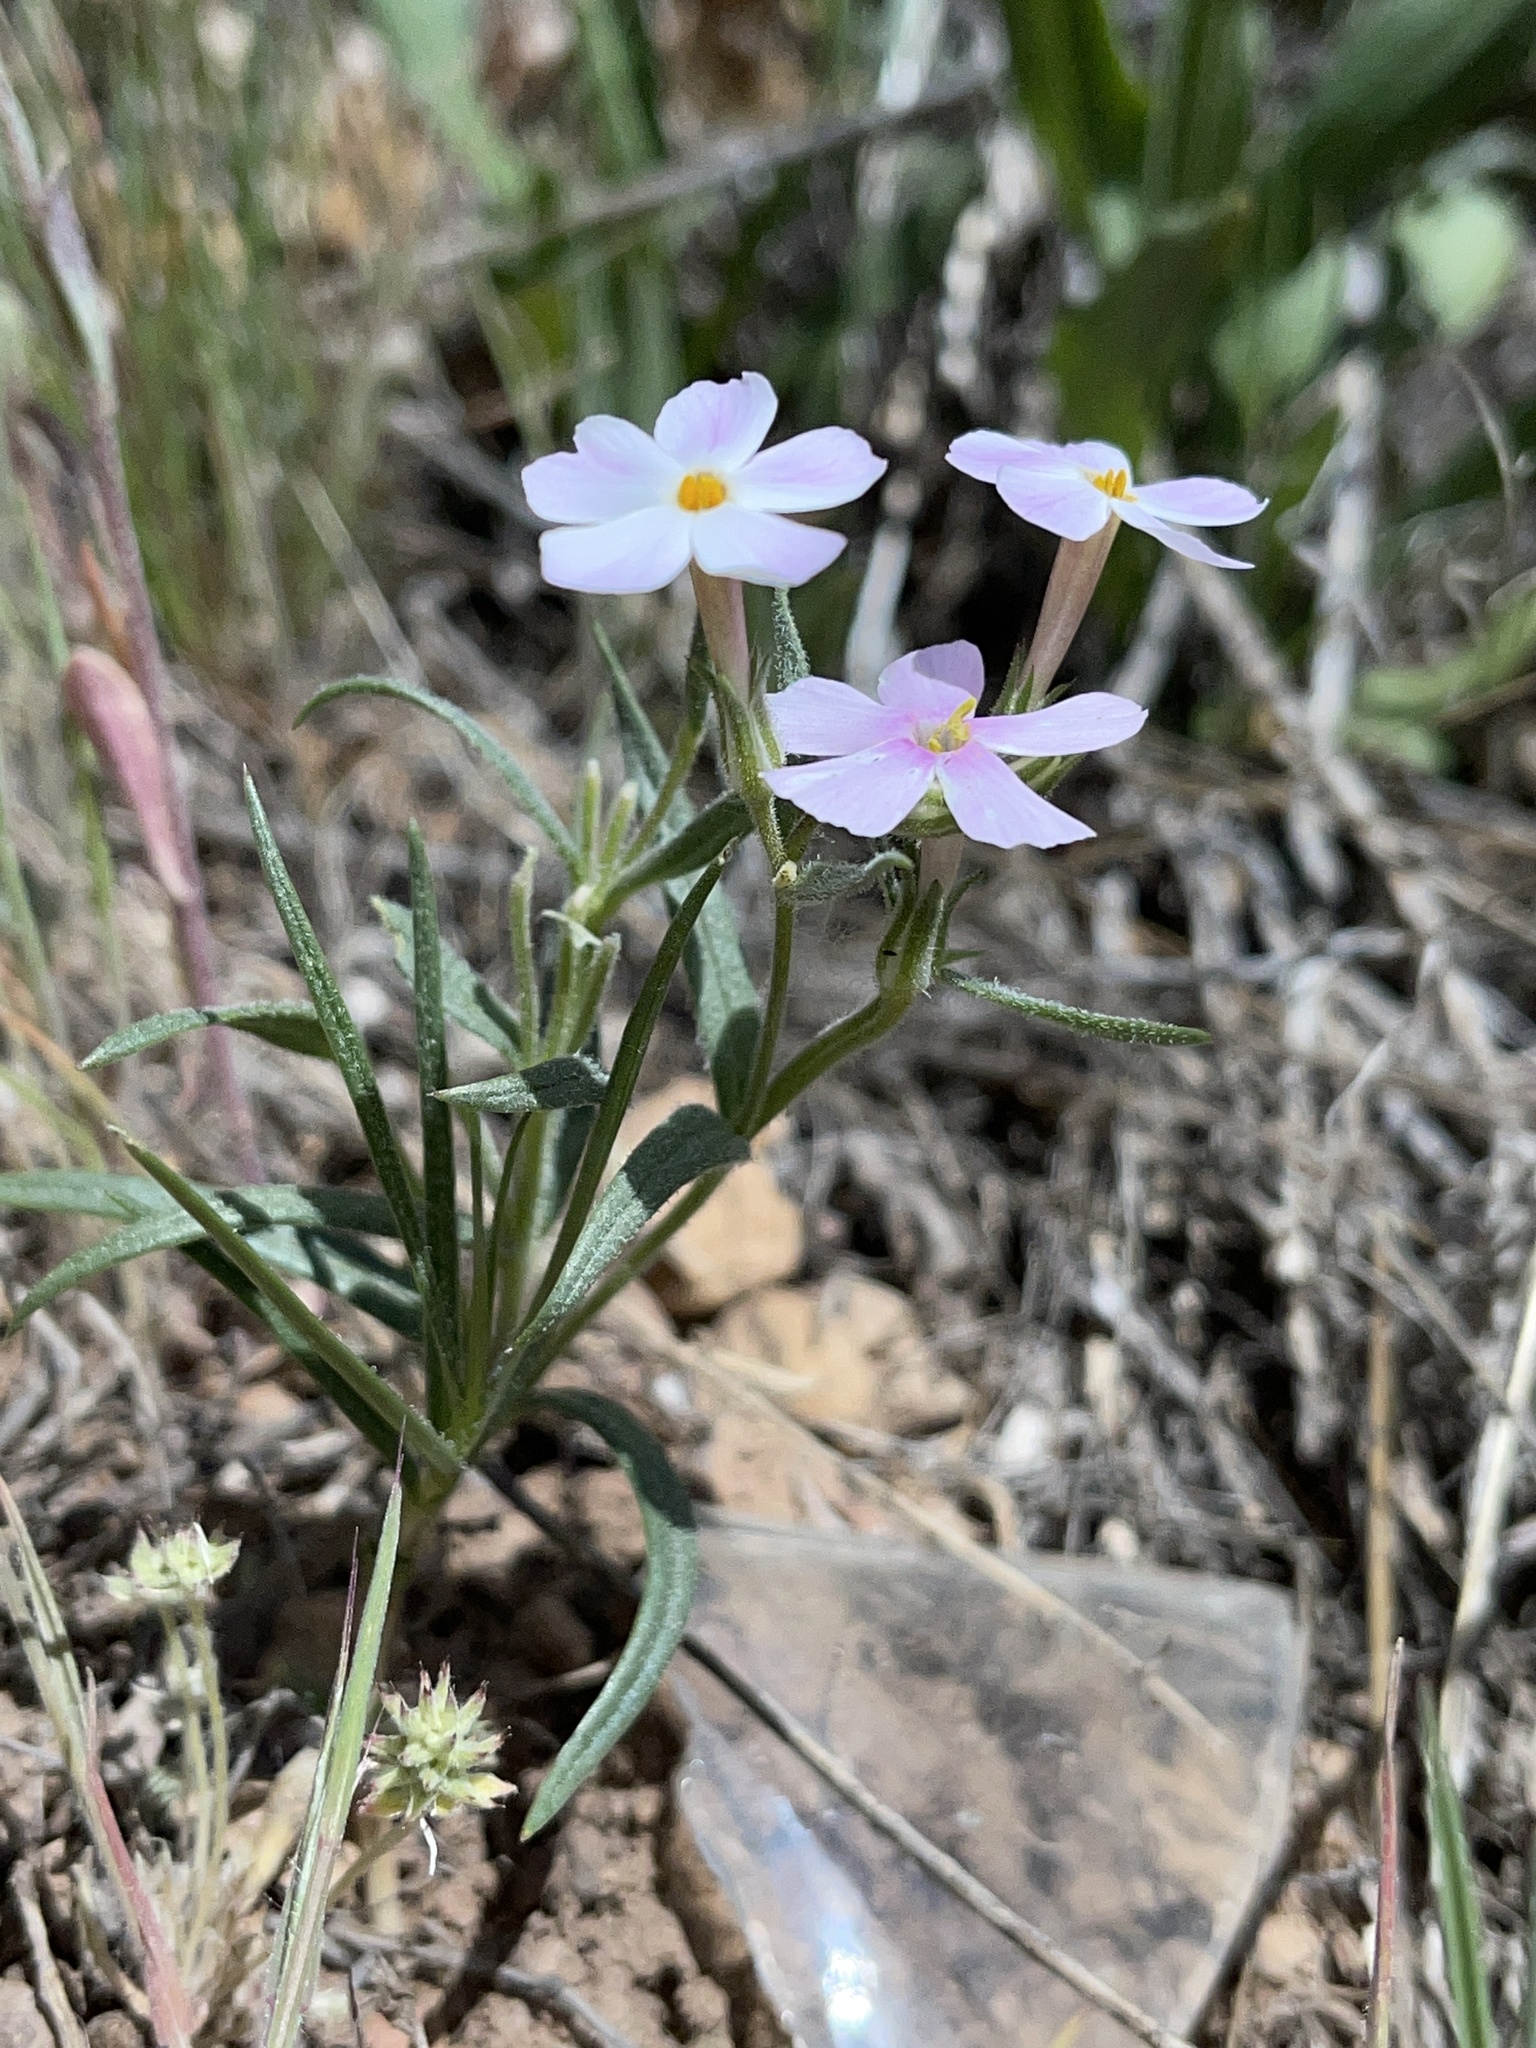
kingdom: Plantae
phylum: Tracheophyta
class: Magnoliopsida
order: Ericales
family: Polemoniaceae
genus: Phlox
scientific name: Phlox longifolia
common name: Longleaf phlox
